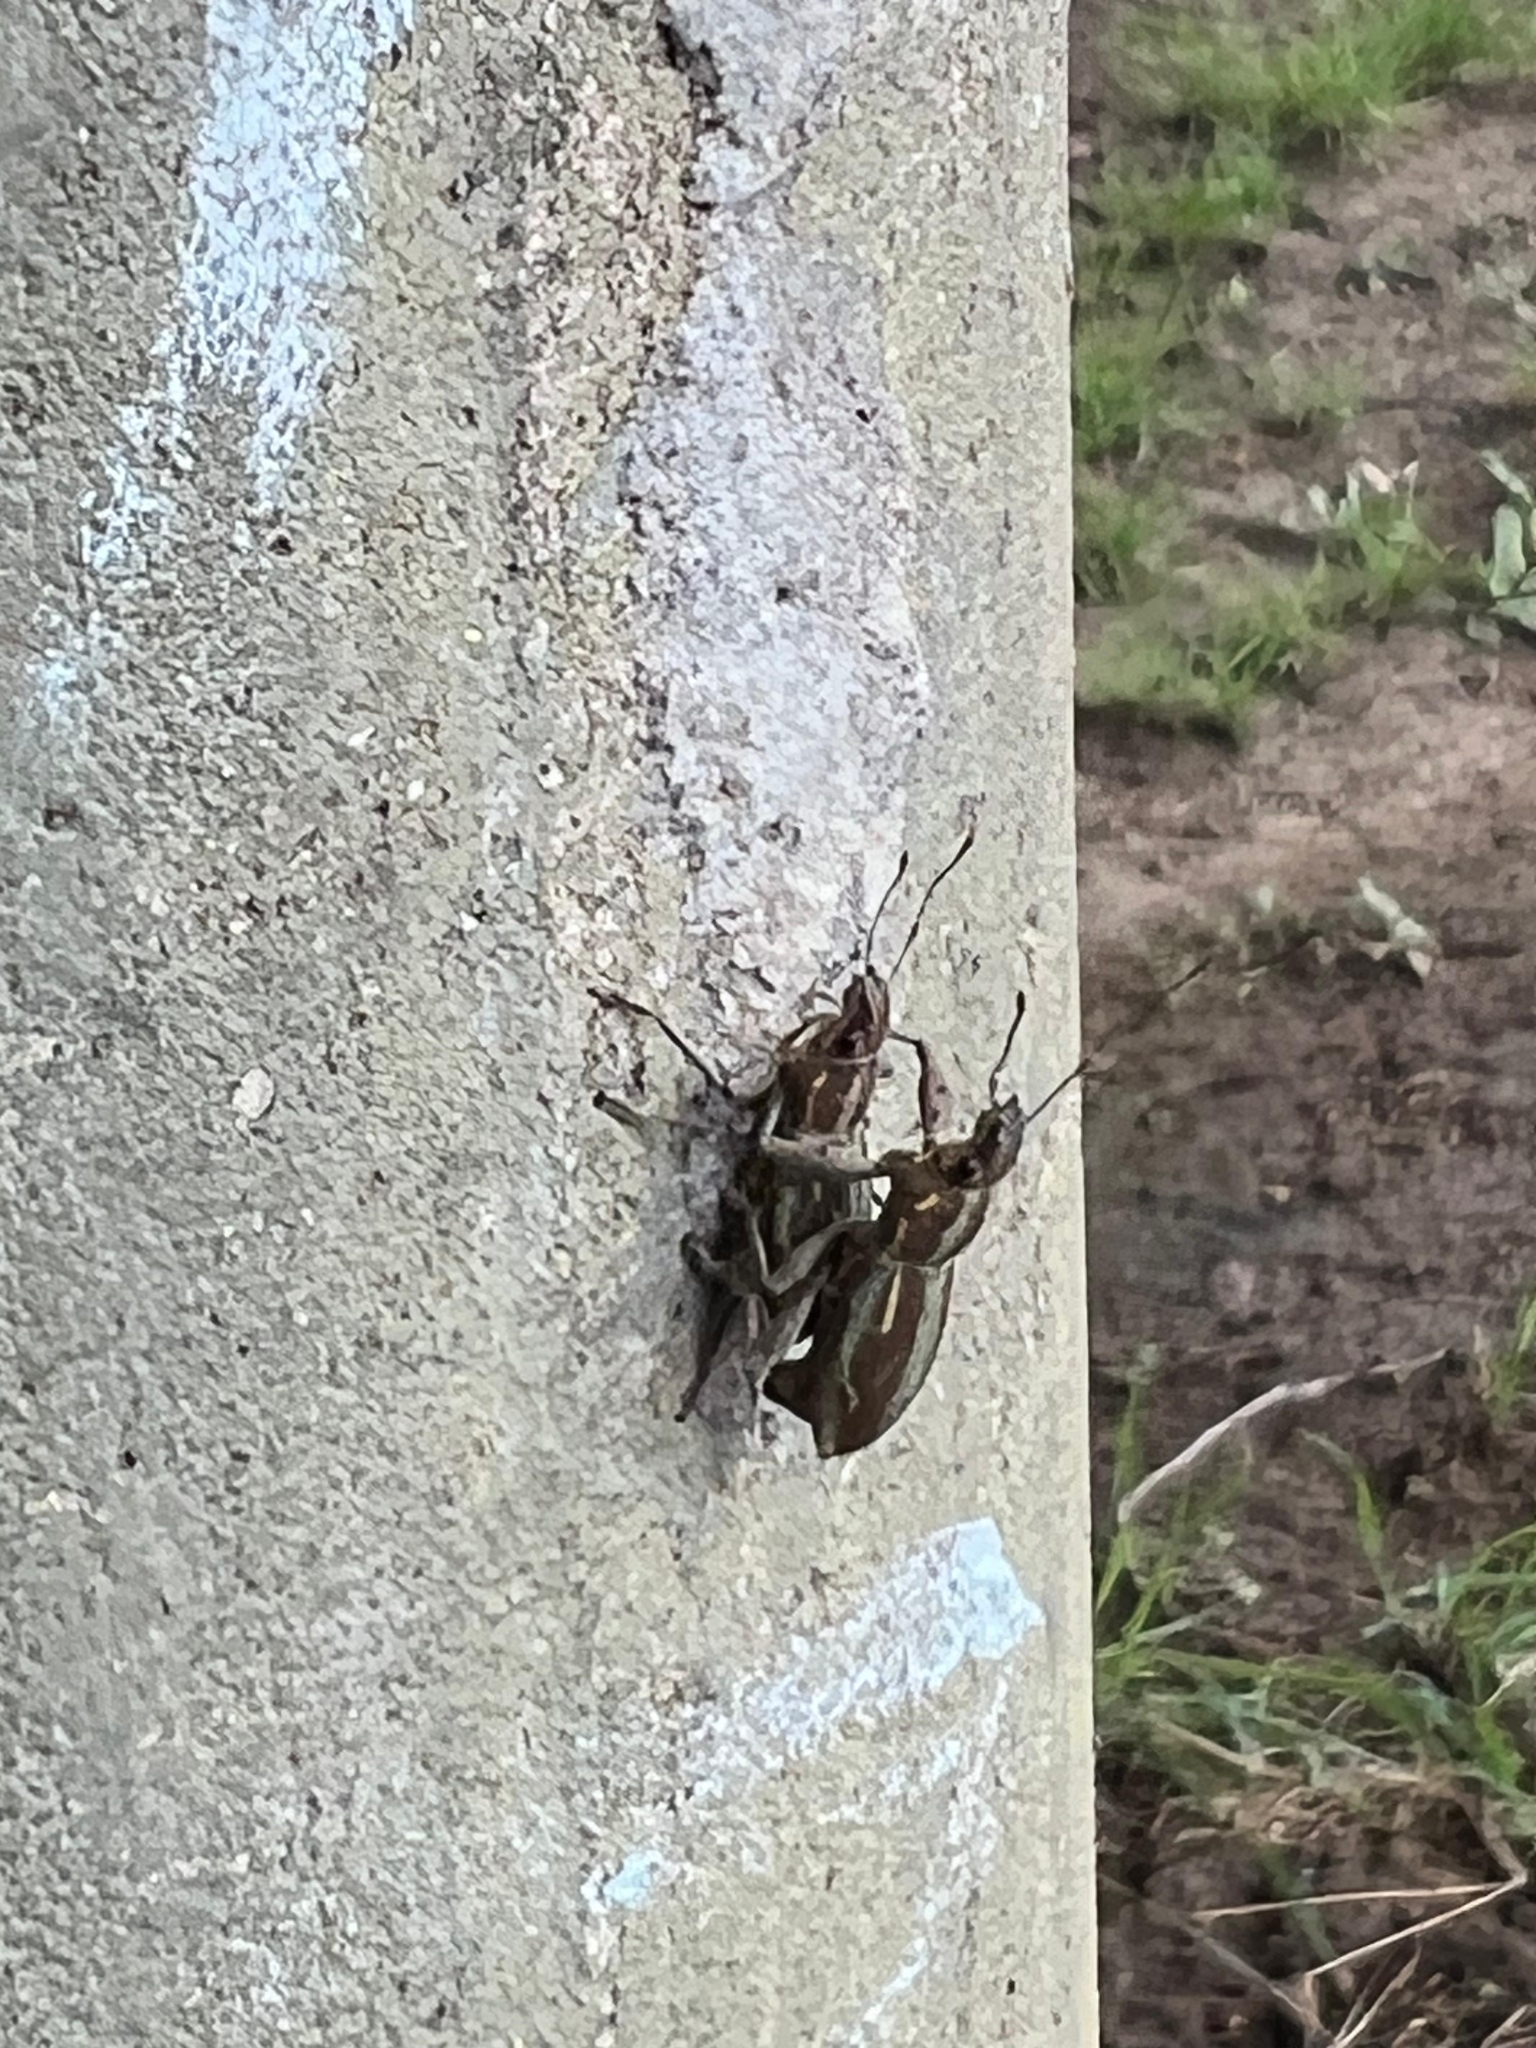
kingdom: Animalia
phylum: Arthropoda
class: Insecta
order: Coleoptera
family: Curculionidae
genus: Naupactus
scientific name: Naupactus xanthographus
